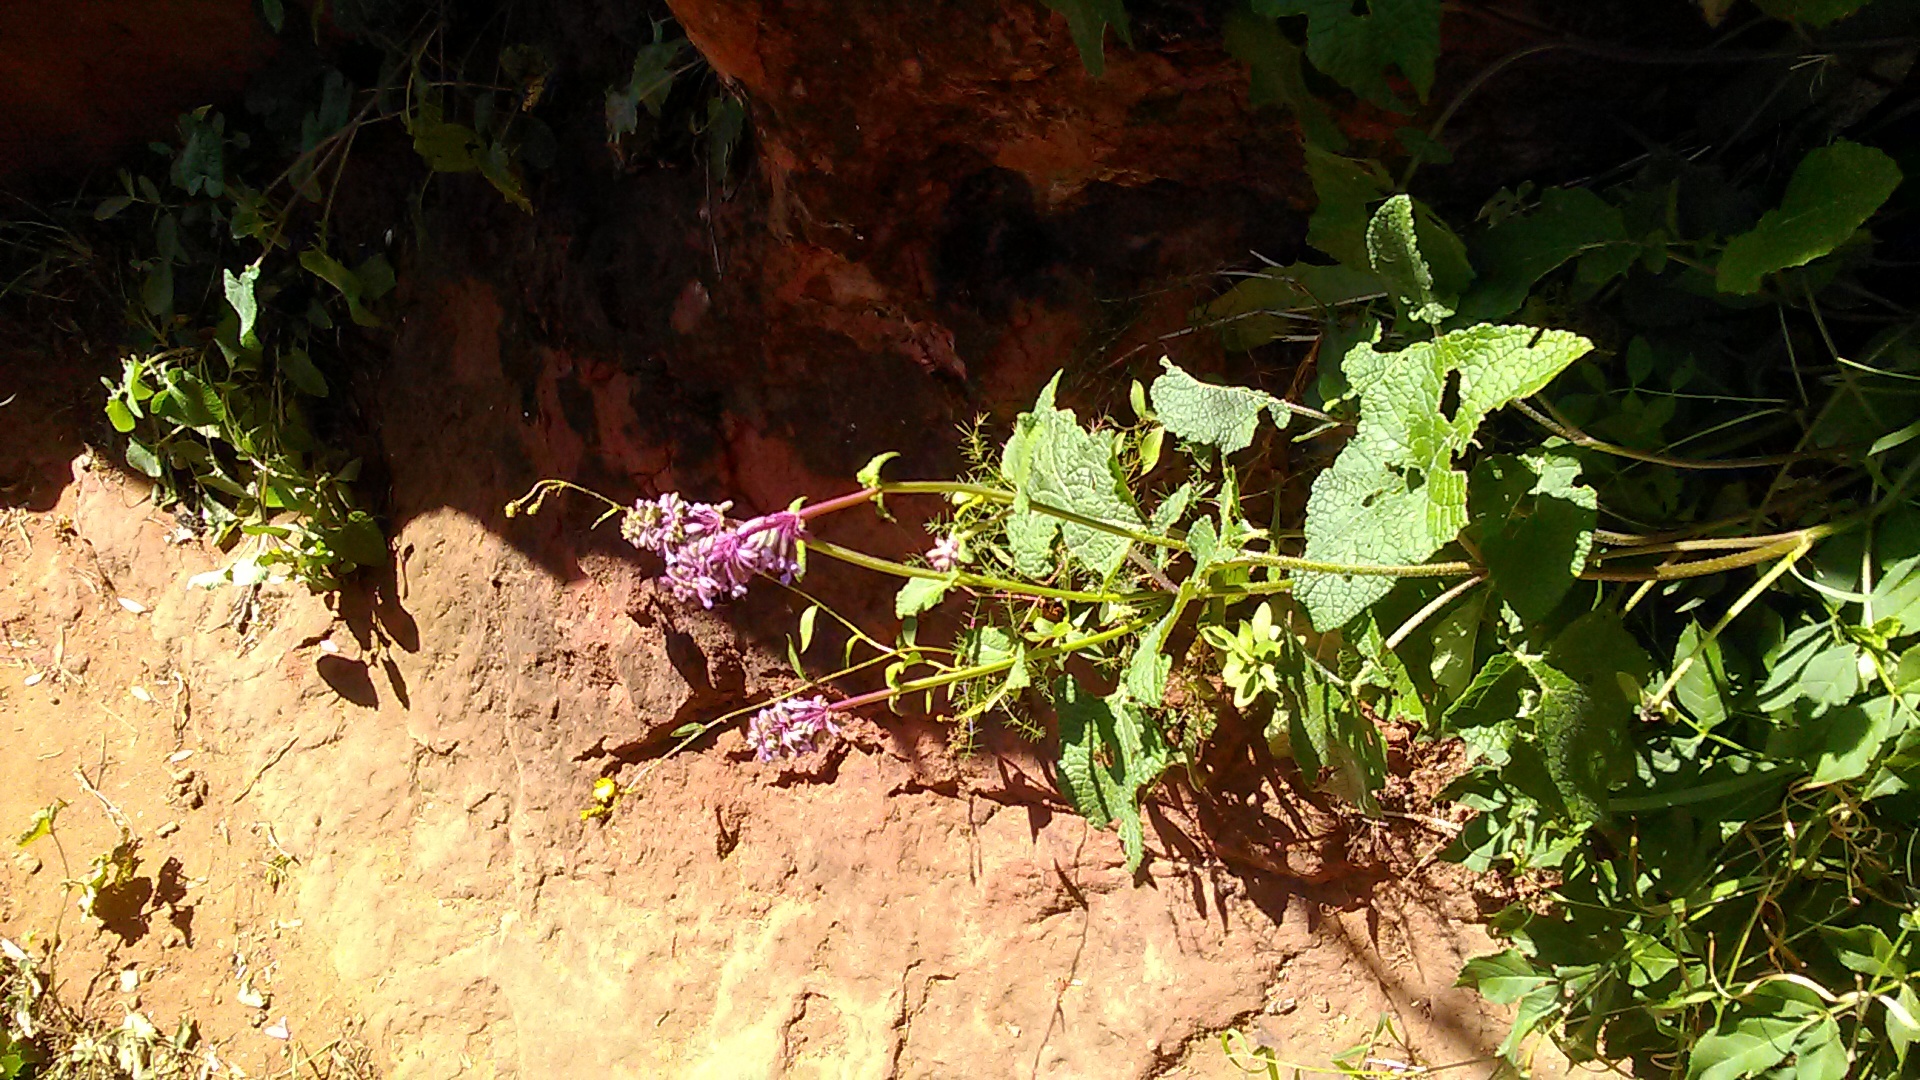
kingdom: Plantae
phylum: Tracheophyta
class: Magnoliopsida
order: Lamiales
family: Lamiaceae
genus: Salvia
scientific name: Salvia verticillata
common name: Whorled clary
